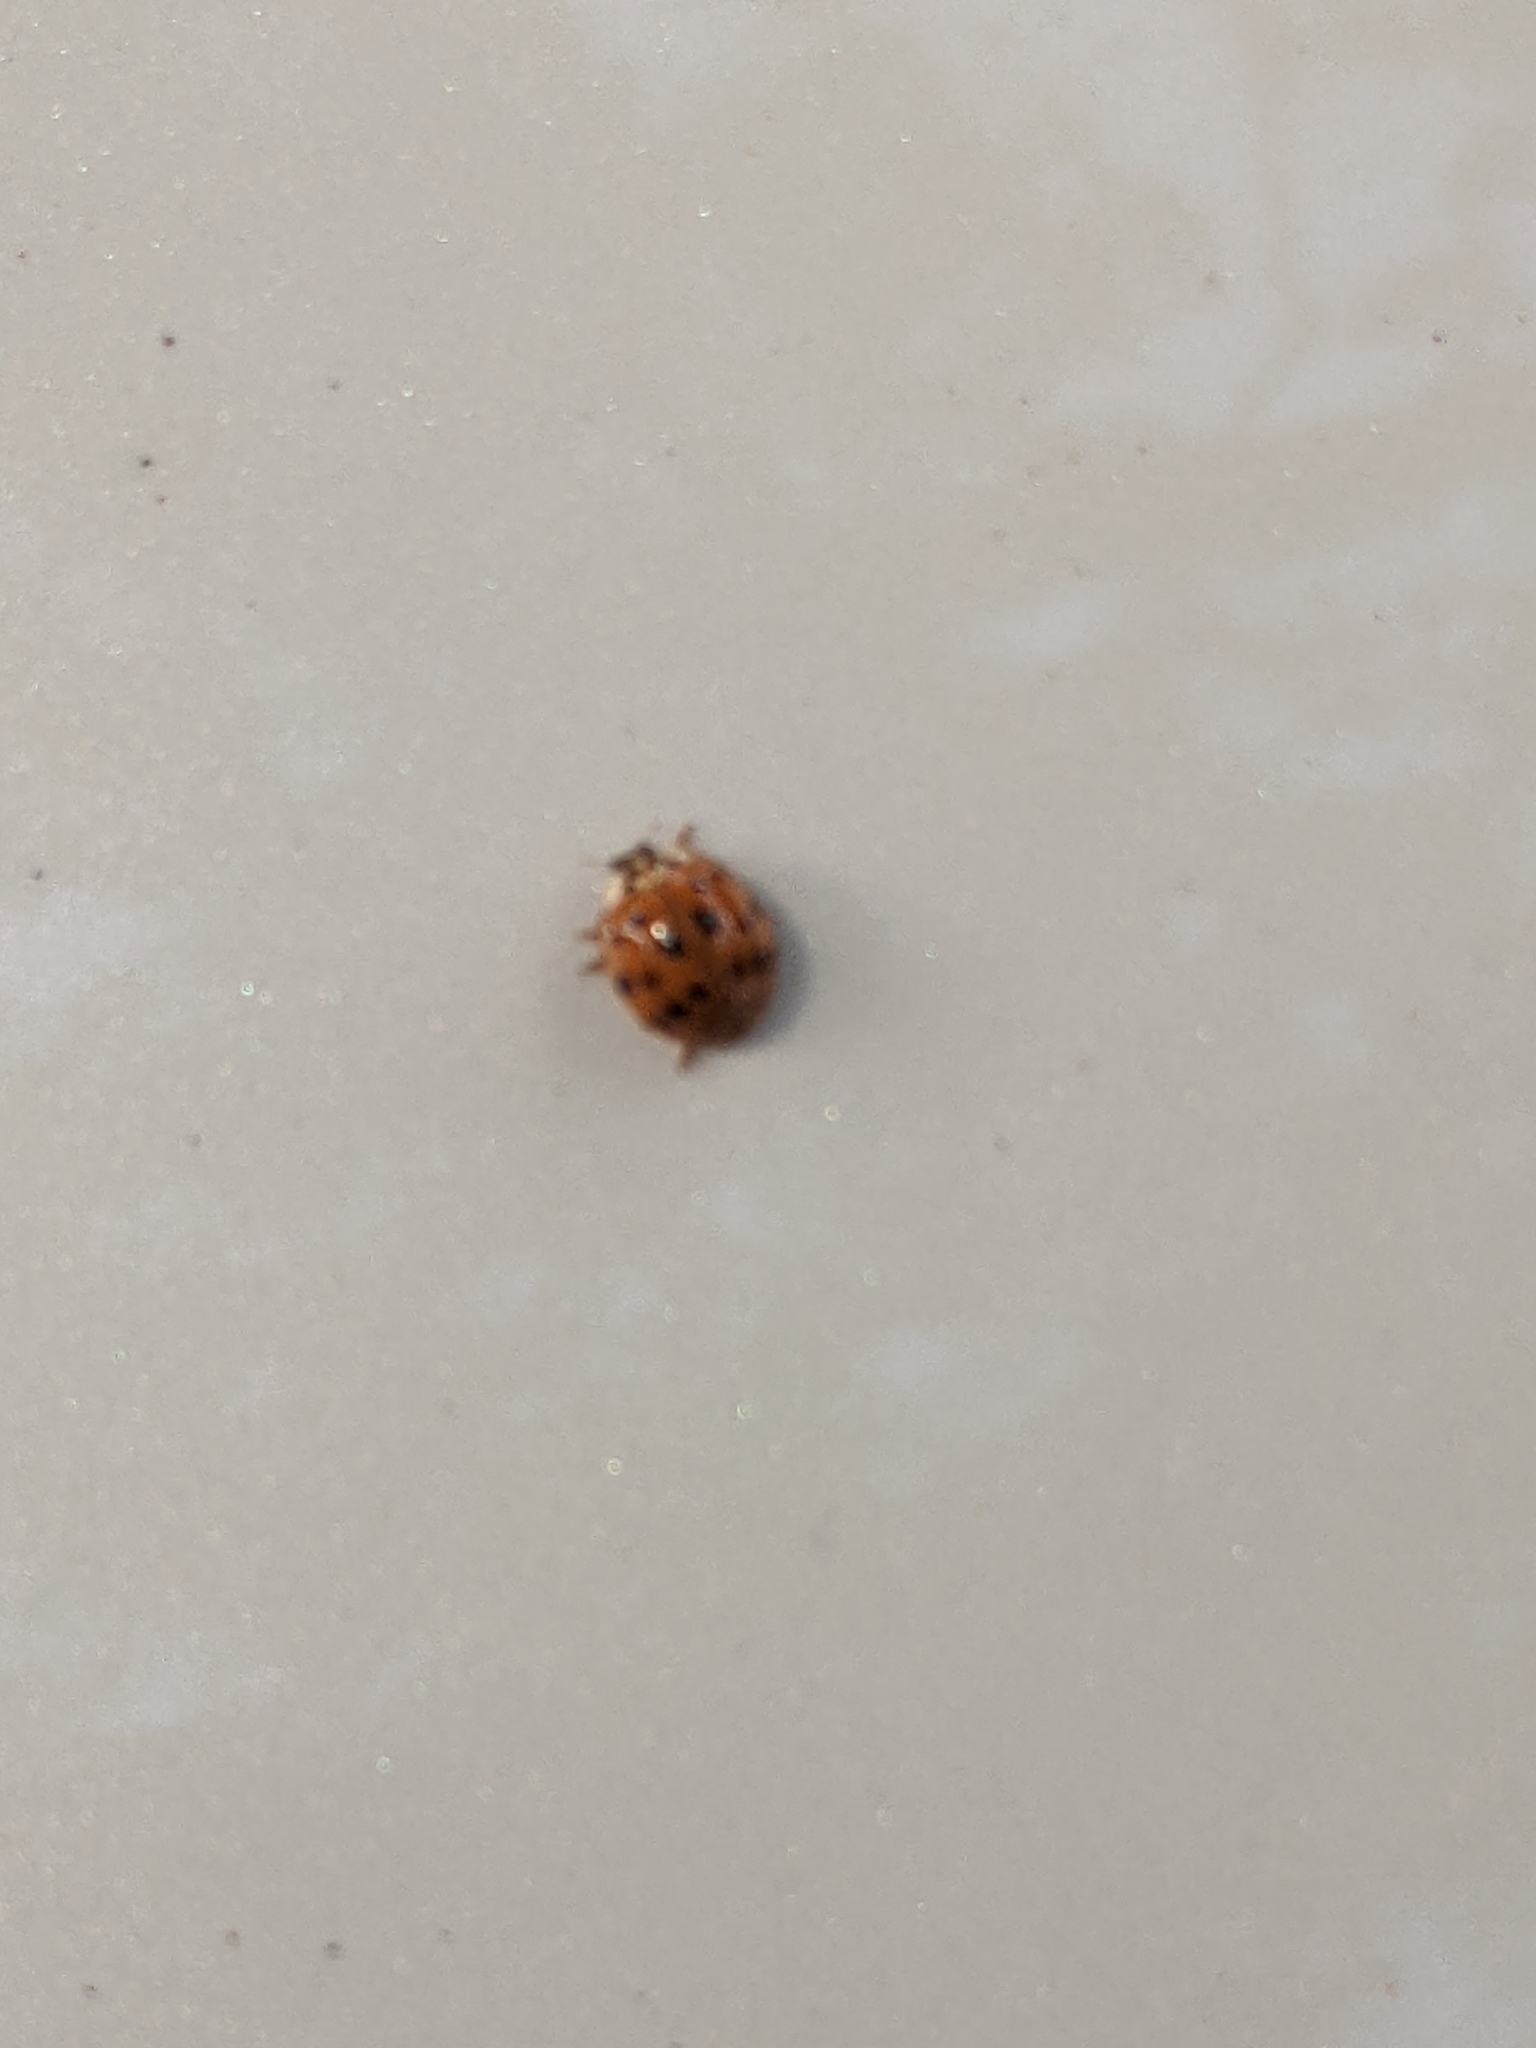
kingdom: Animalia
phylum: Arthropoda
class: Insecta
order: Coleoptera
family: Coccinellidae
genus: Harmonia
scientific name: Harmonia axyridis
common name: Harlequin ladybird
